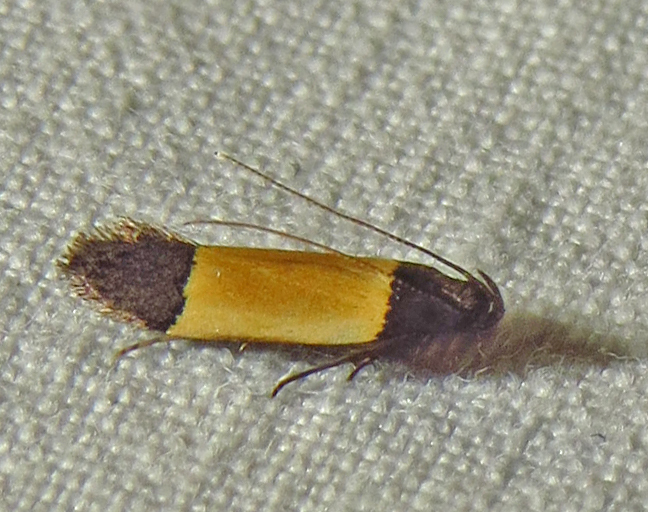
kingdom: Animalia
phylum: Arthropoda
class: Insecta
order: Lepidoptera
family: Gelechiidae
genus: Anacampsis
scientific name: Anacampsis coverdalella
